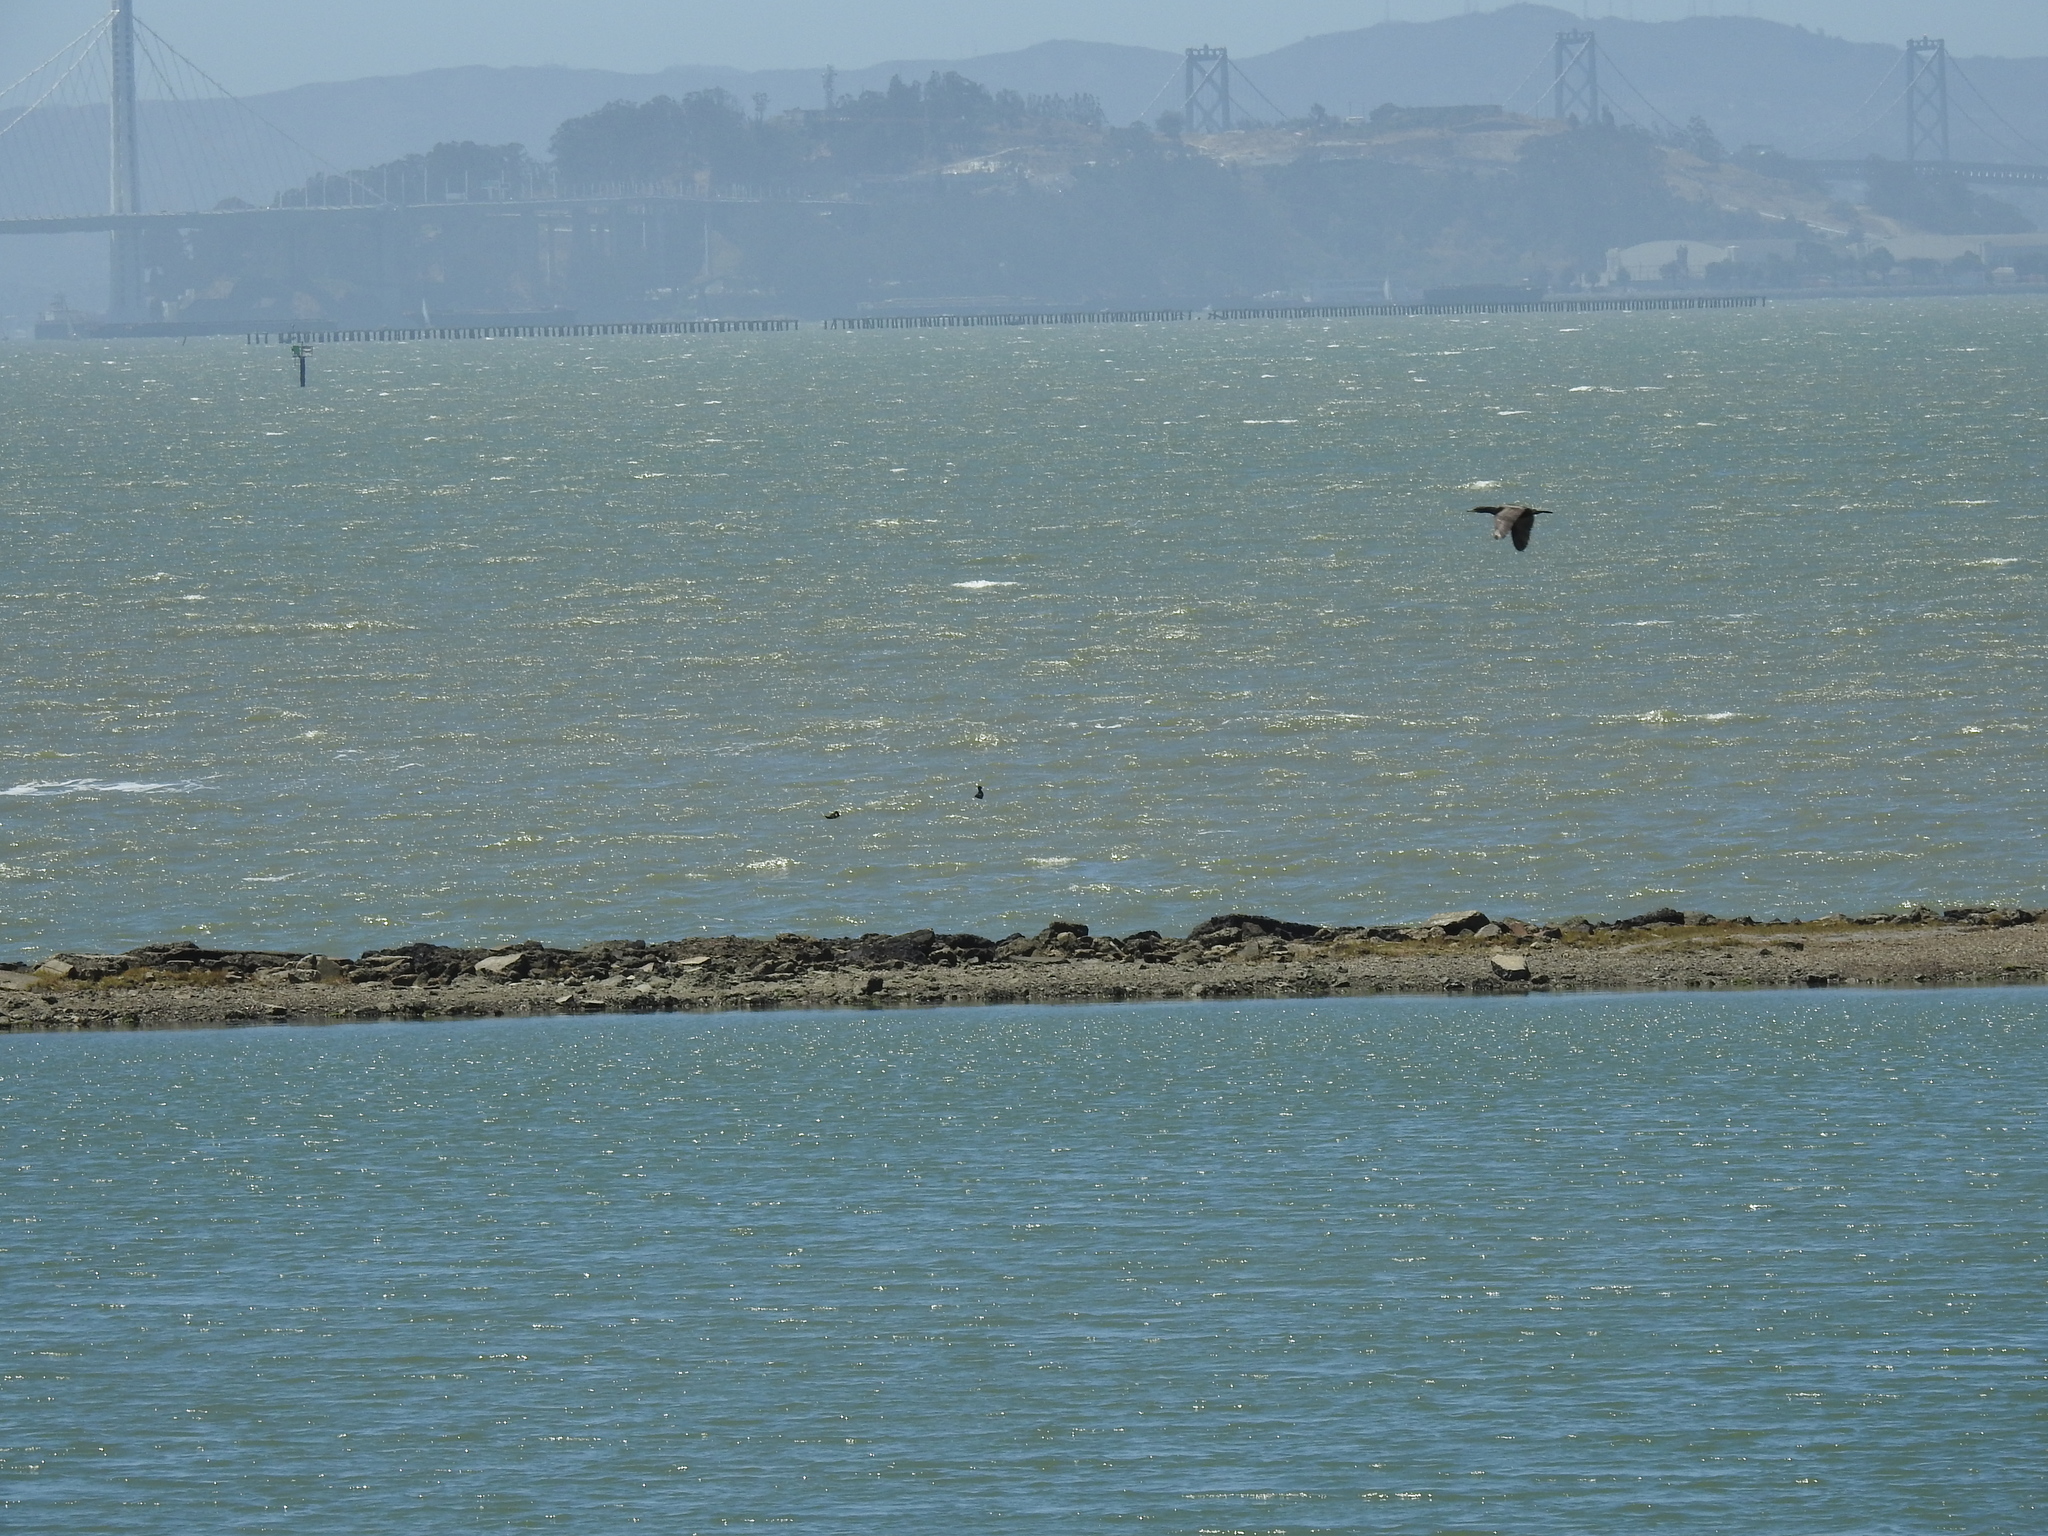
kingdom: Animalia
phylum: Chordata
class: Aves
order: Suliformes
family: Phalacrocoracidae
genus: Phalacrocorax
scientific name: Phalacrocorax auritus
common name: Double-crested cormorant
